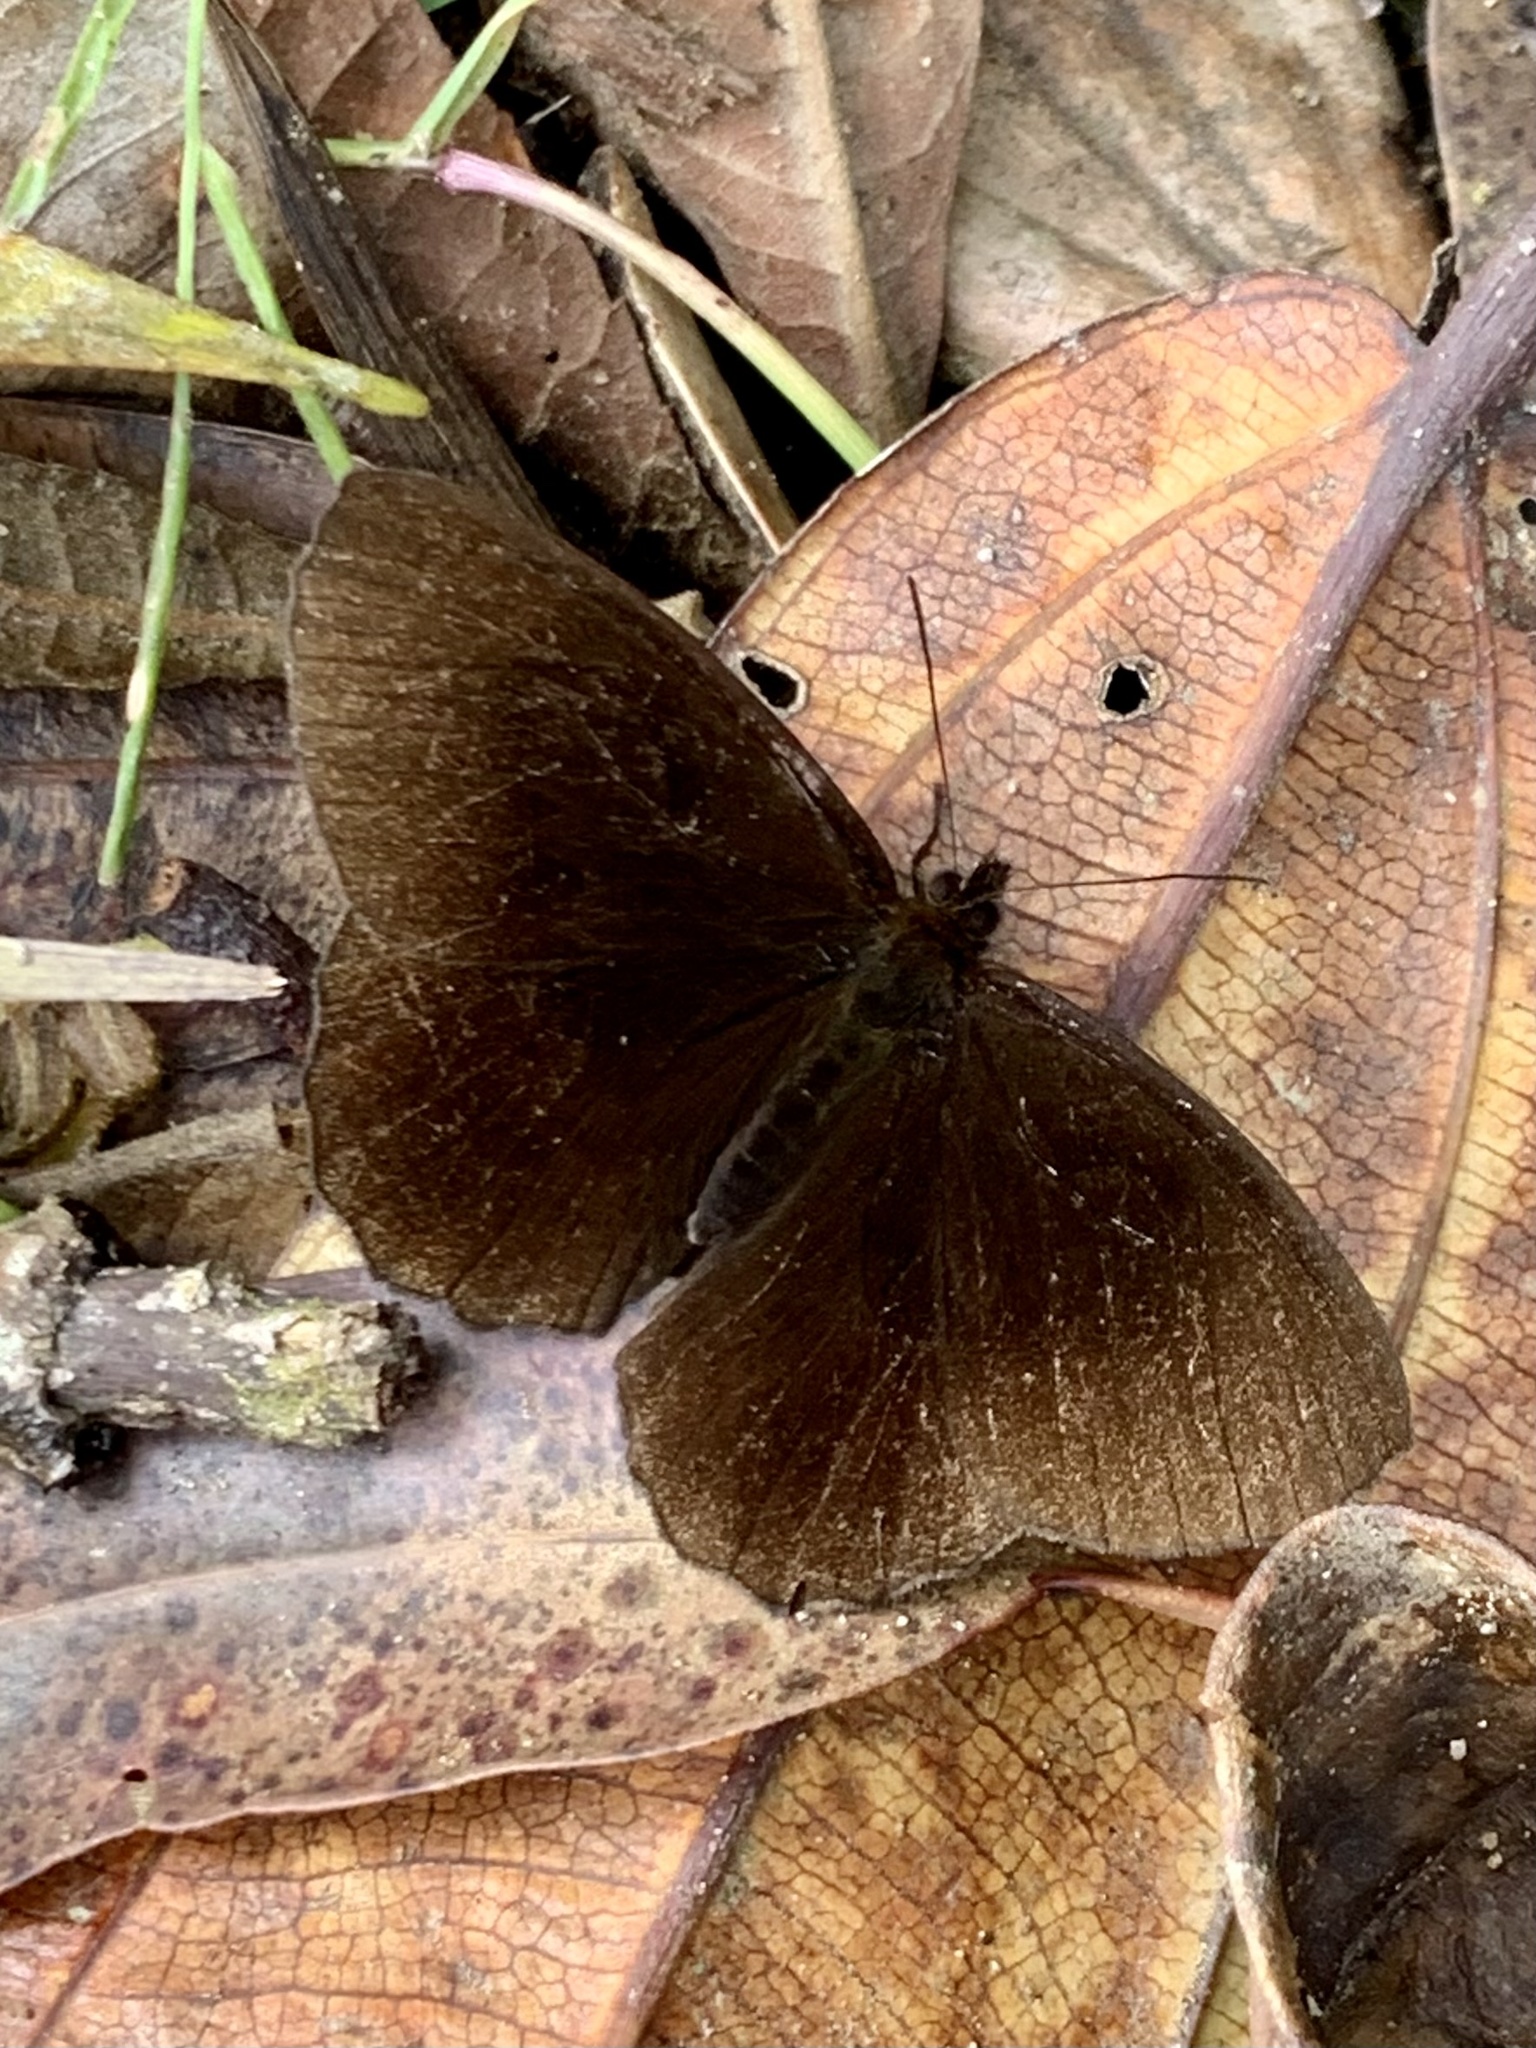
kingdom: Animalia
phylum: Arthropoda
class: Insecta
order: Lepidoptera
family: Nymphalidae
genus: Pedaliodes
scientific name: Pedaliodes pausia
